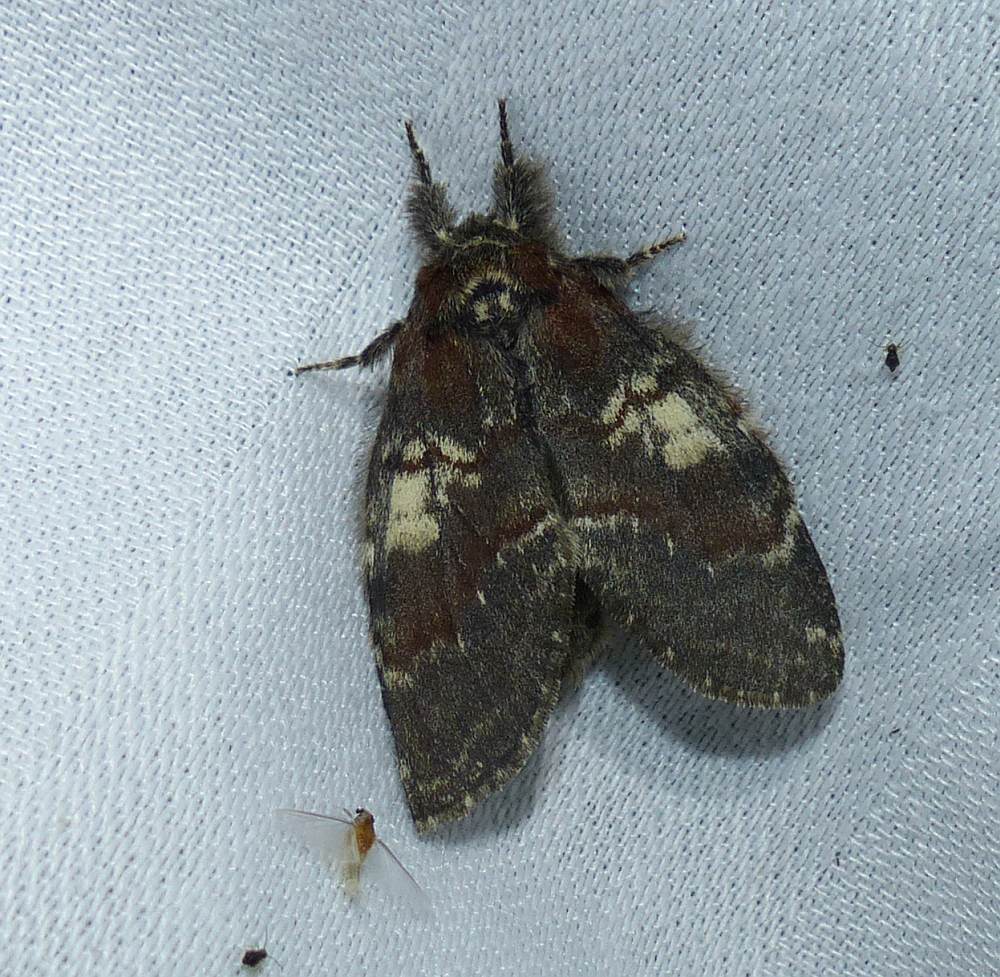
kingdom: Animalia
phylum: Arthropoda
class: Insecta
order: Lepidoptera
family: Notodontidae
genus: Peridea
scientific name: Peridea ferruginea
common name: Chocolate prominent
